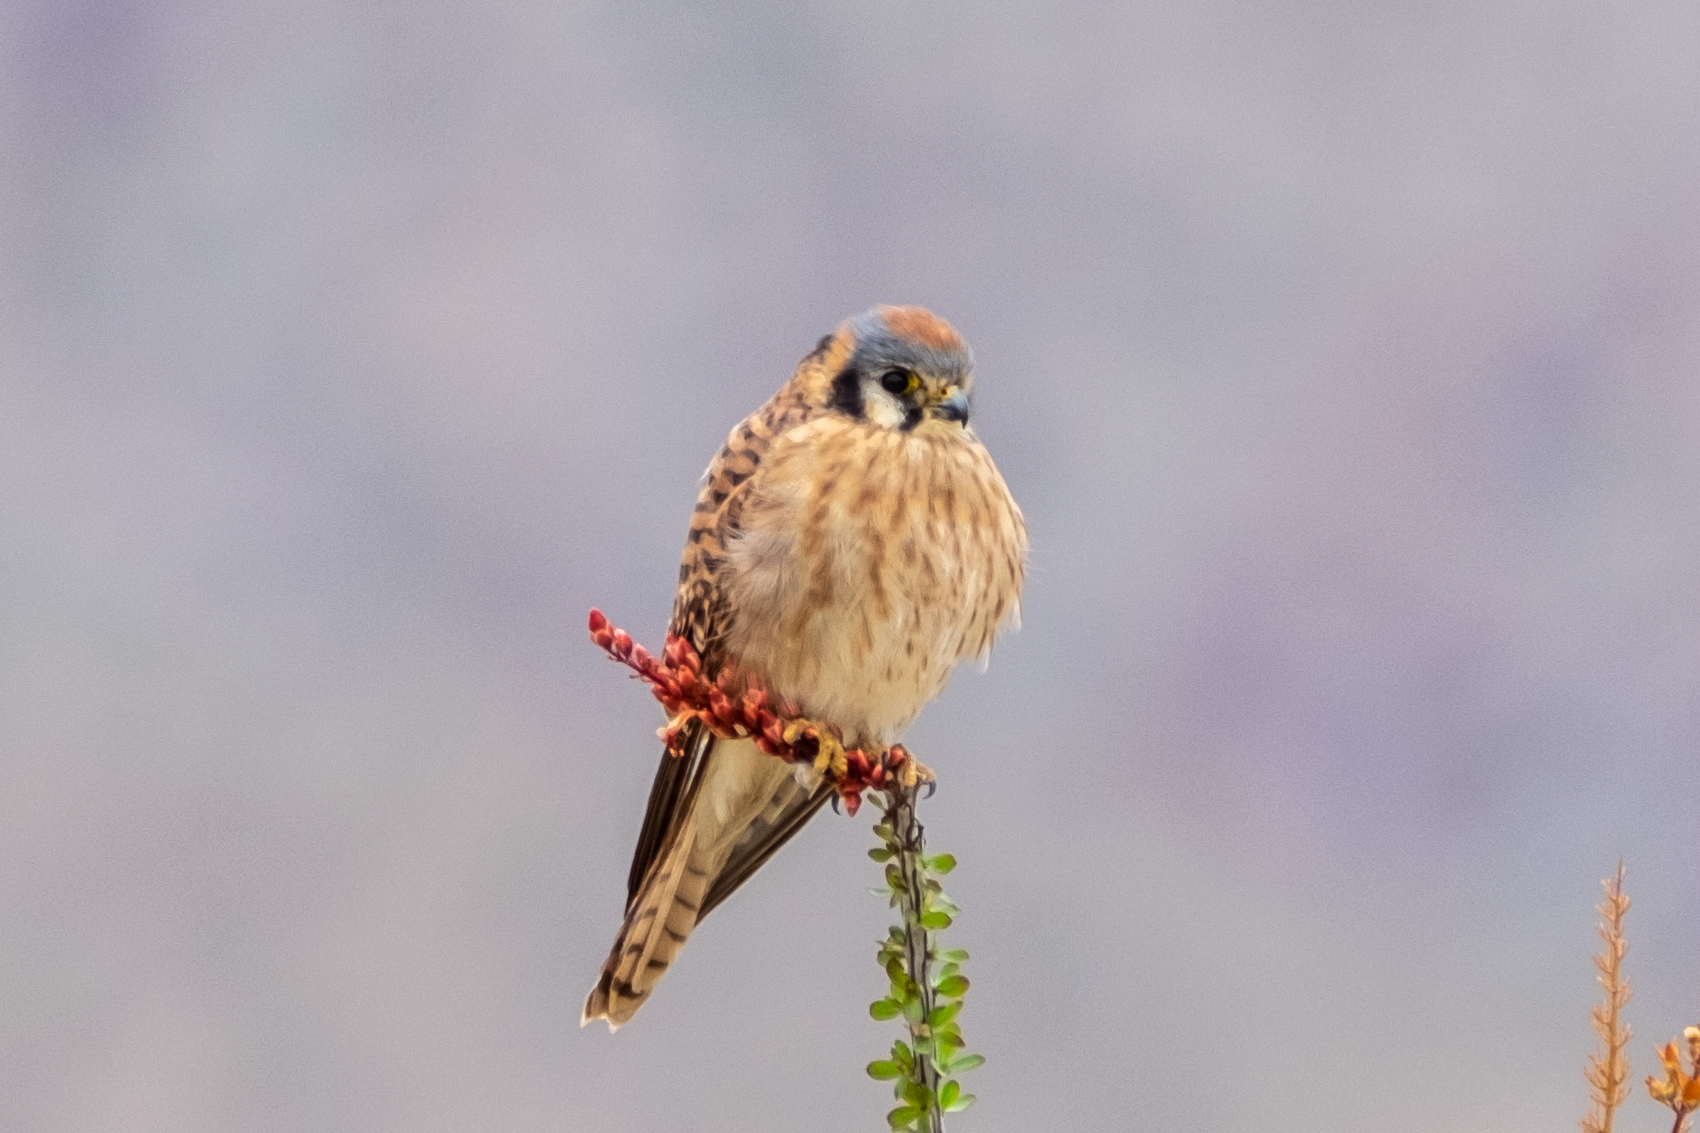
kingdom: Animalia
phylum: Chordata
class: Aves
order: Falconiformes
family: Falconidae
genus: Falco
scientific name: Falco sparverius
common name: American kestrel
